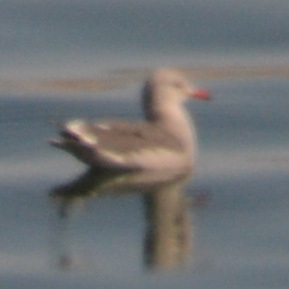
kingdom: Animalia
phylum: Chordata
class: Aves
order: Charadriiformes
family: Laridae
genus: Larus
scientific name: Larus heermanni
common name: Heermann's gull
